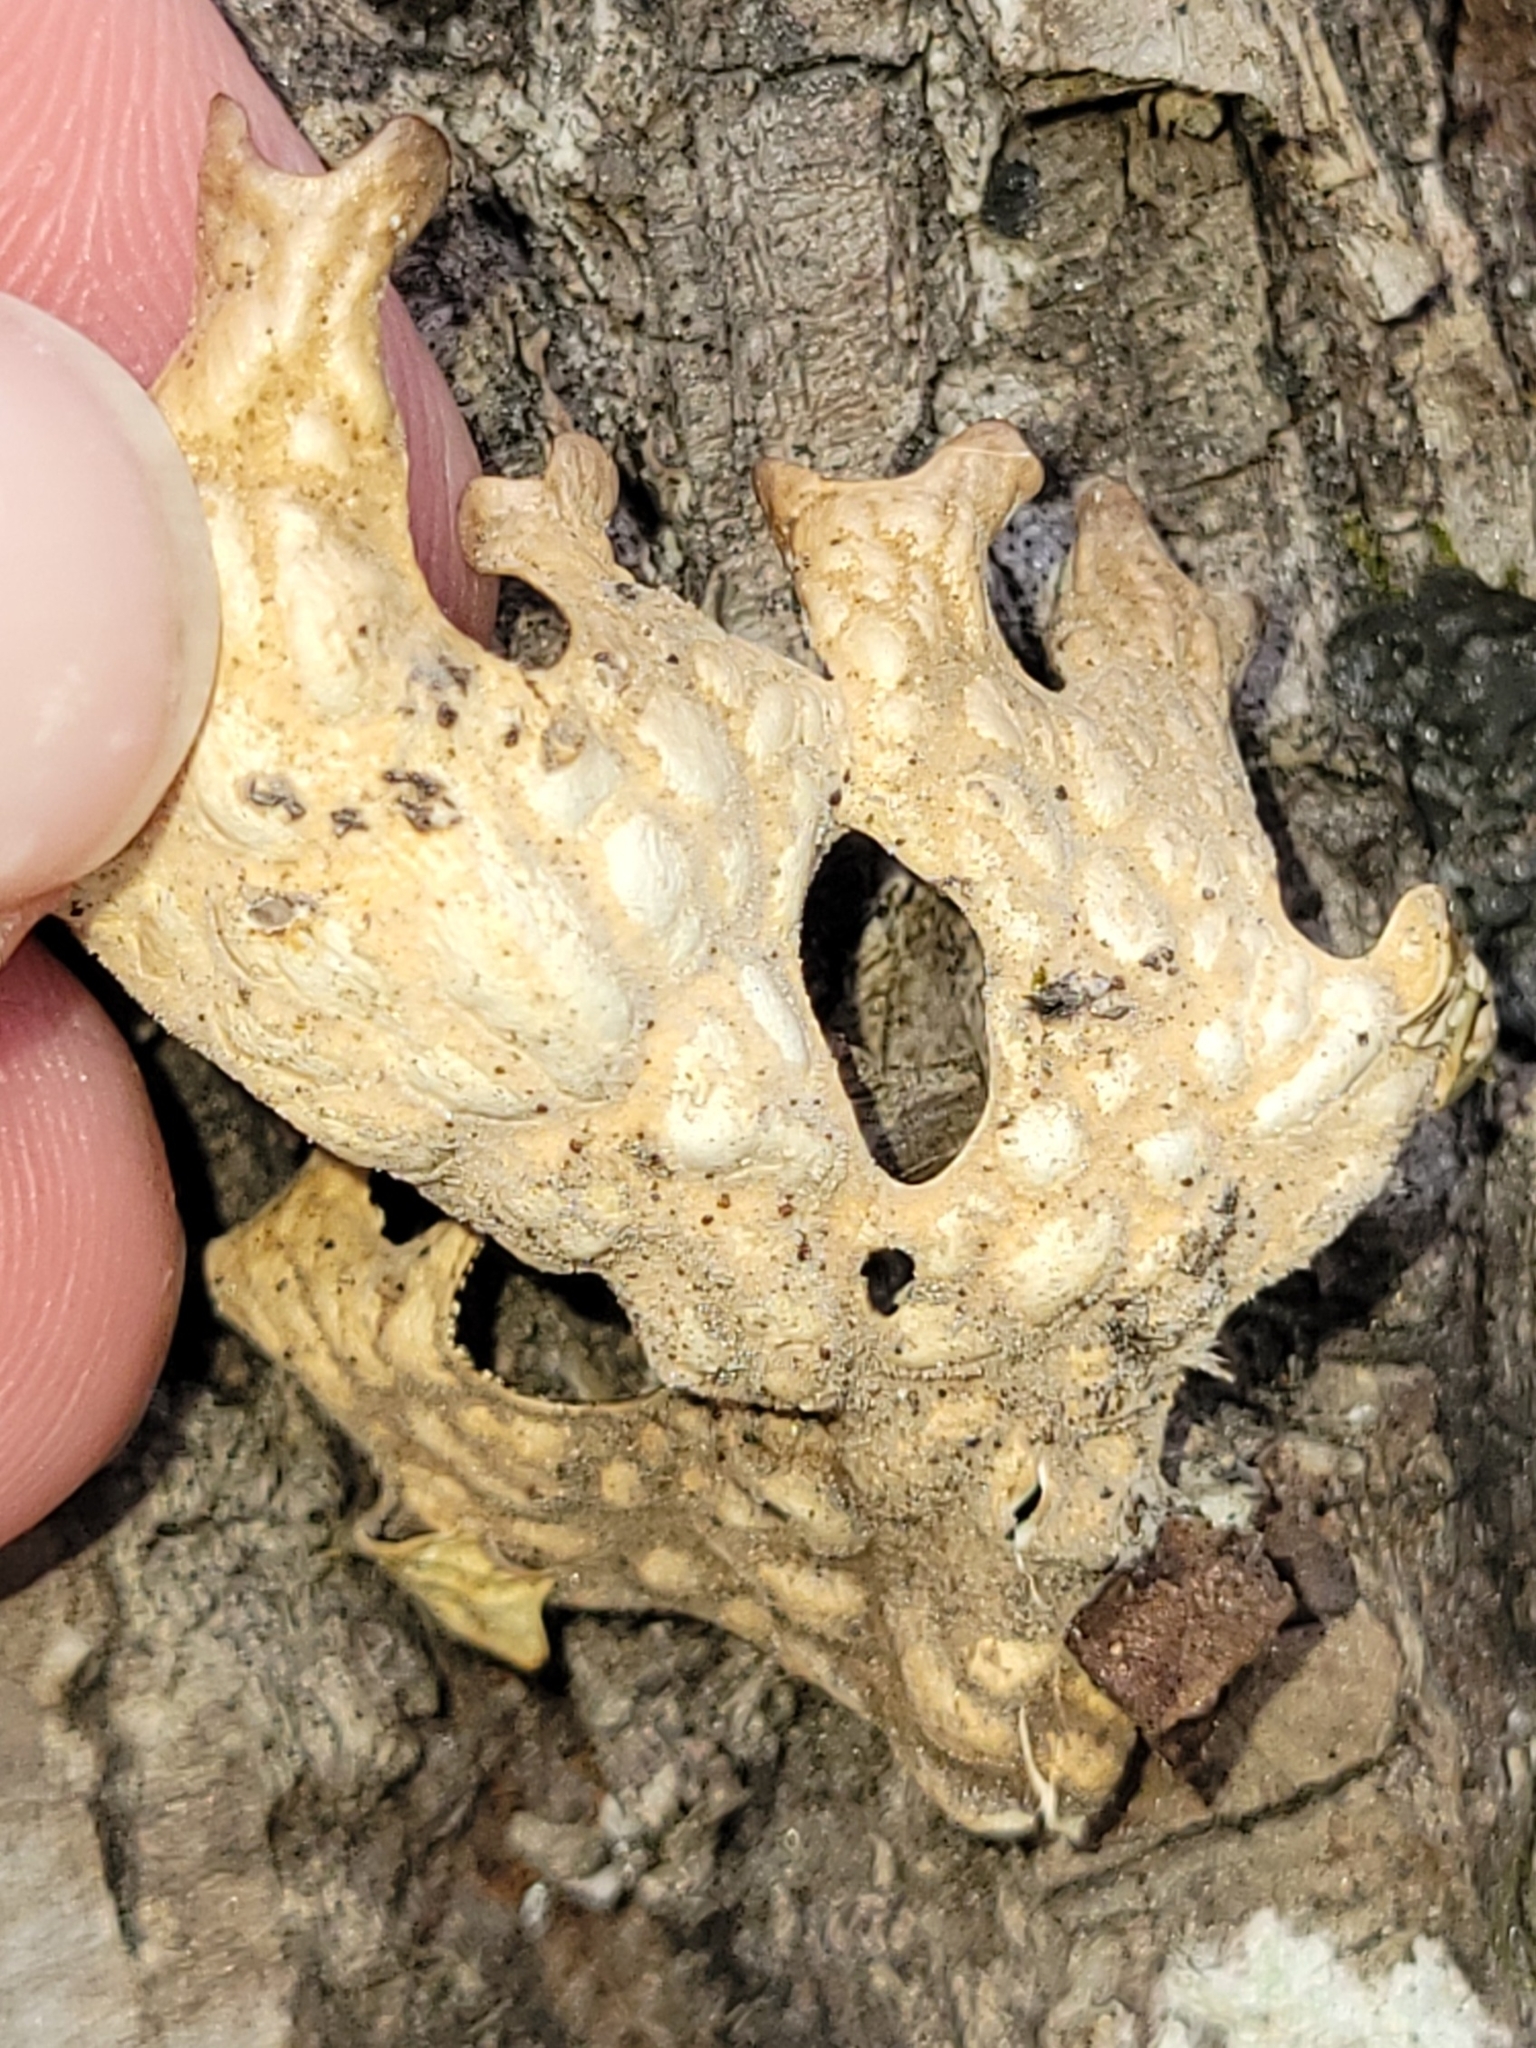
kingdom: Fungi
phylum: Ascomycota
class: Lecanoromycetes
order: Peltigerales
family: Lobariaceae
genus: Lobaria
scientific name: Lobaria pulmonaria
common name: Lungwort
